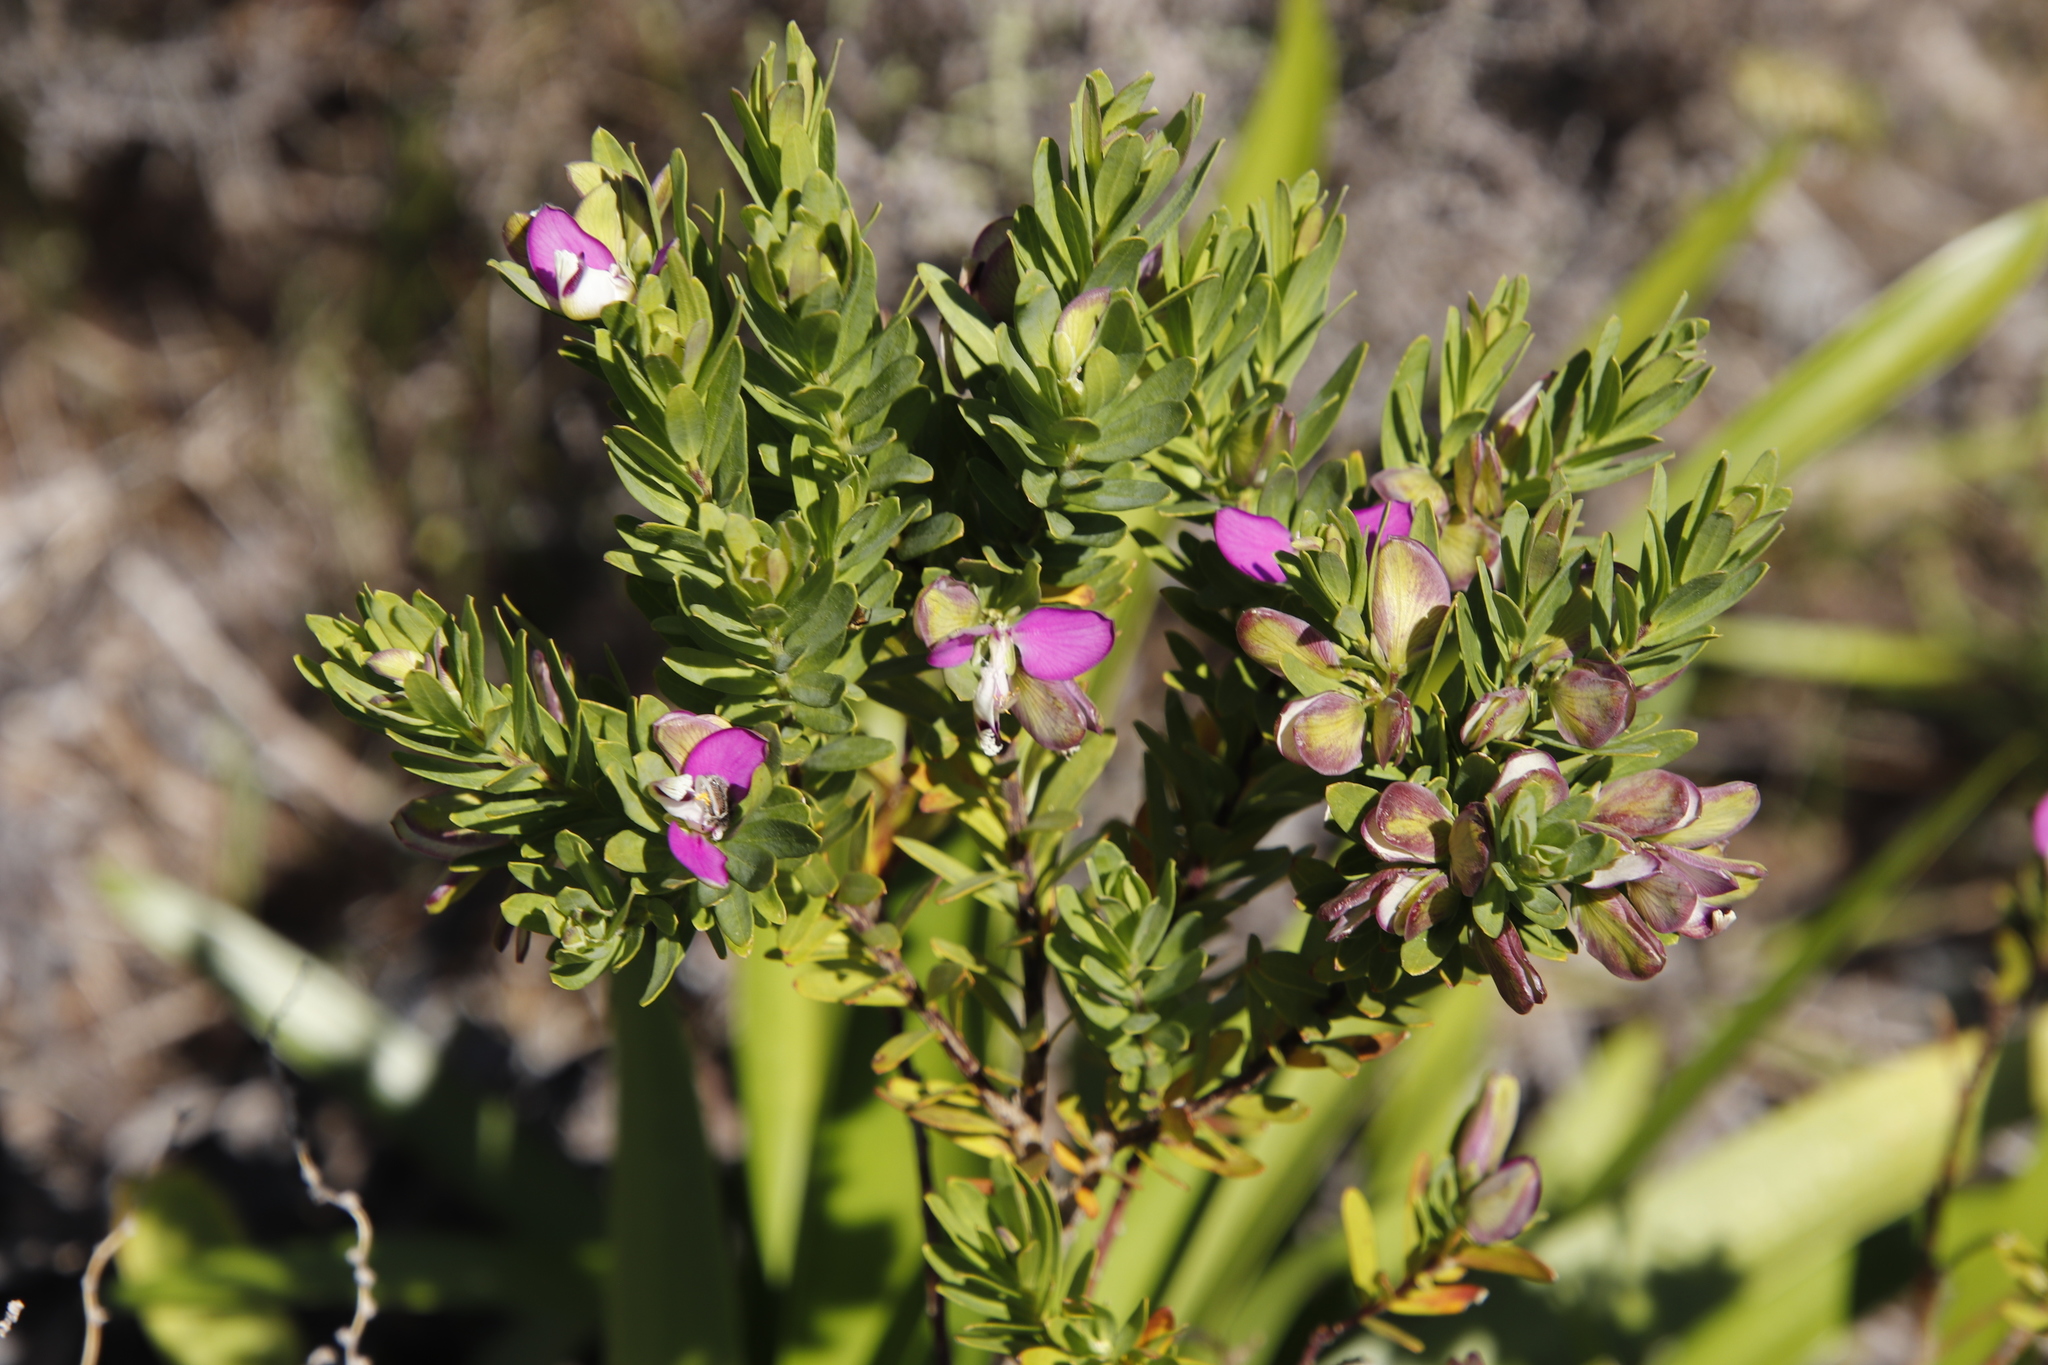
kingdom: Plantae
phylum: Tracheophyta
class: Magnoliopsida
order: Fabales
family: Polygalaceae
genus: Polygala
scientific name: Polygala myrtifolia
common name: Myrtle-leaf milkwort
